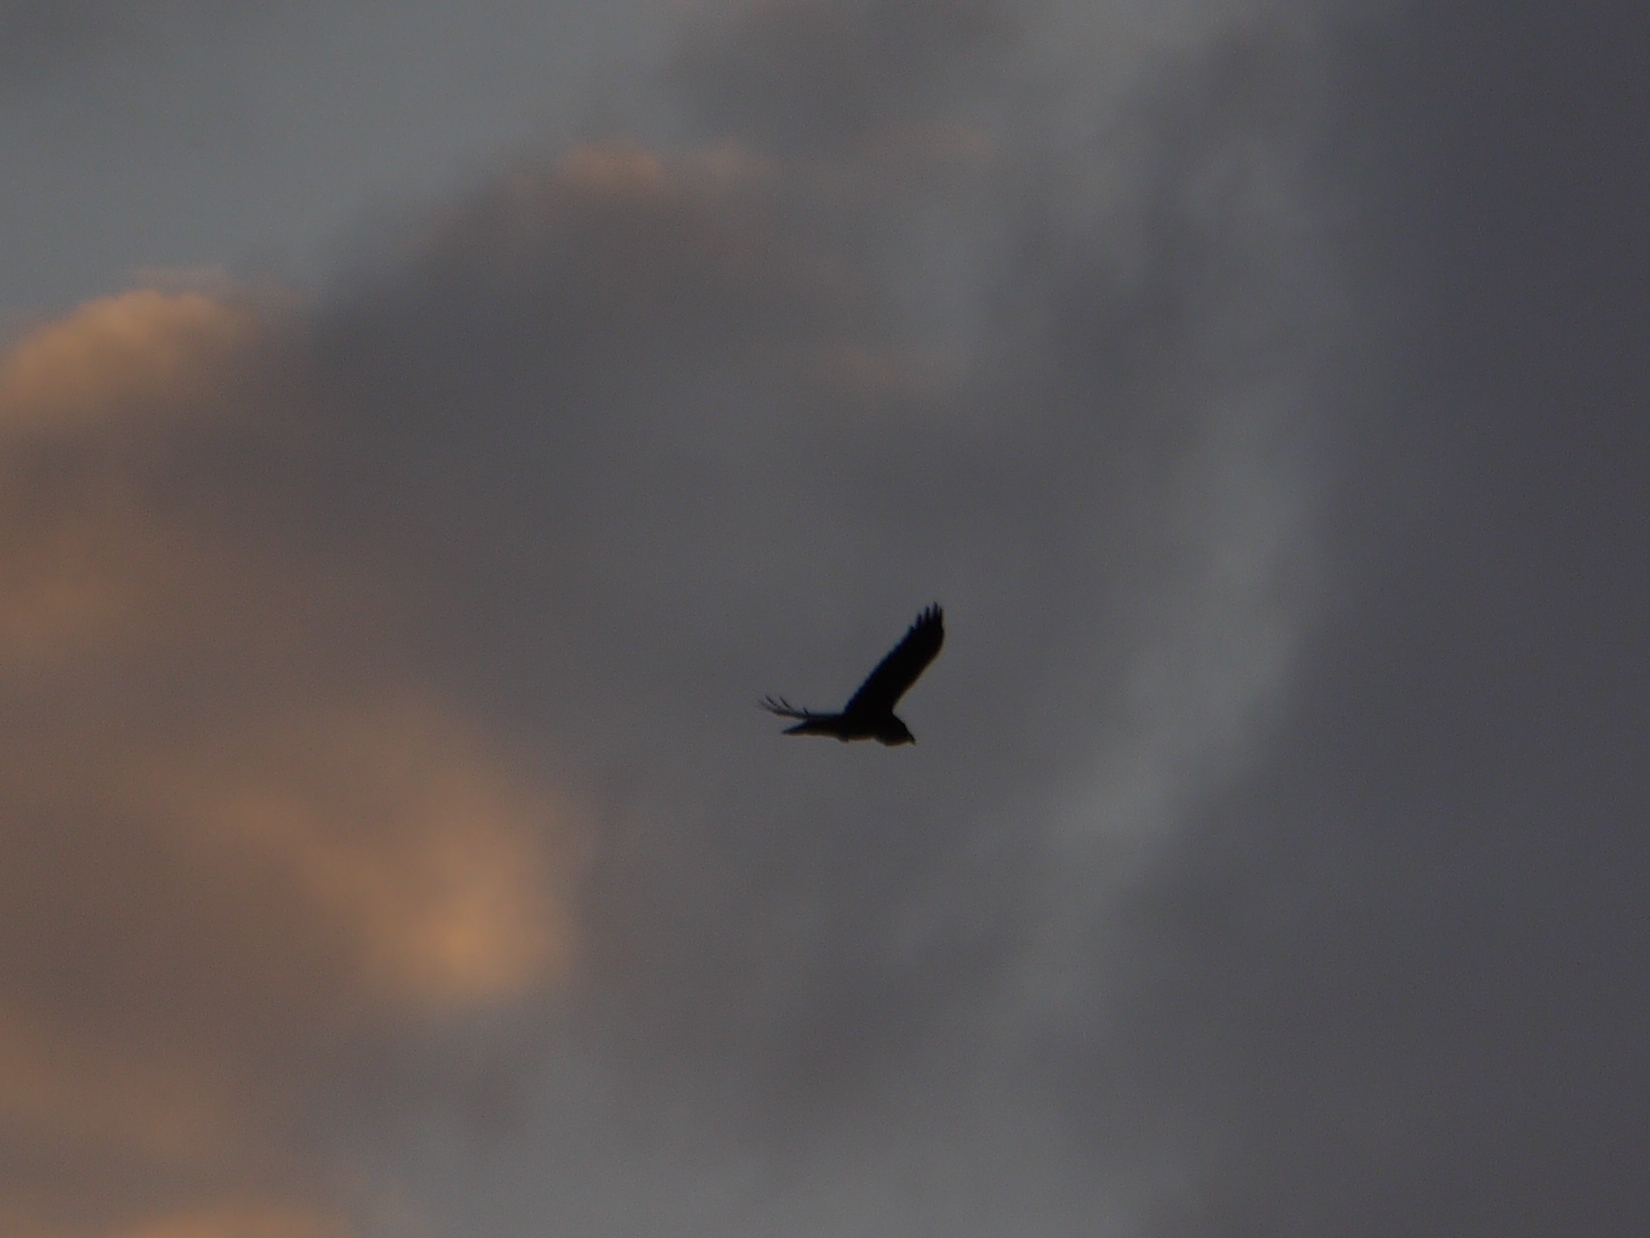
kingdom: Animalia
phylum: Chordata
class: Aves
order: Passeriformes
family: Corvidae
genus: Corvus
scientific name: Corvus corax
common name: Common raven
